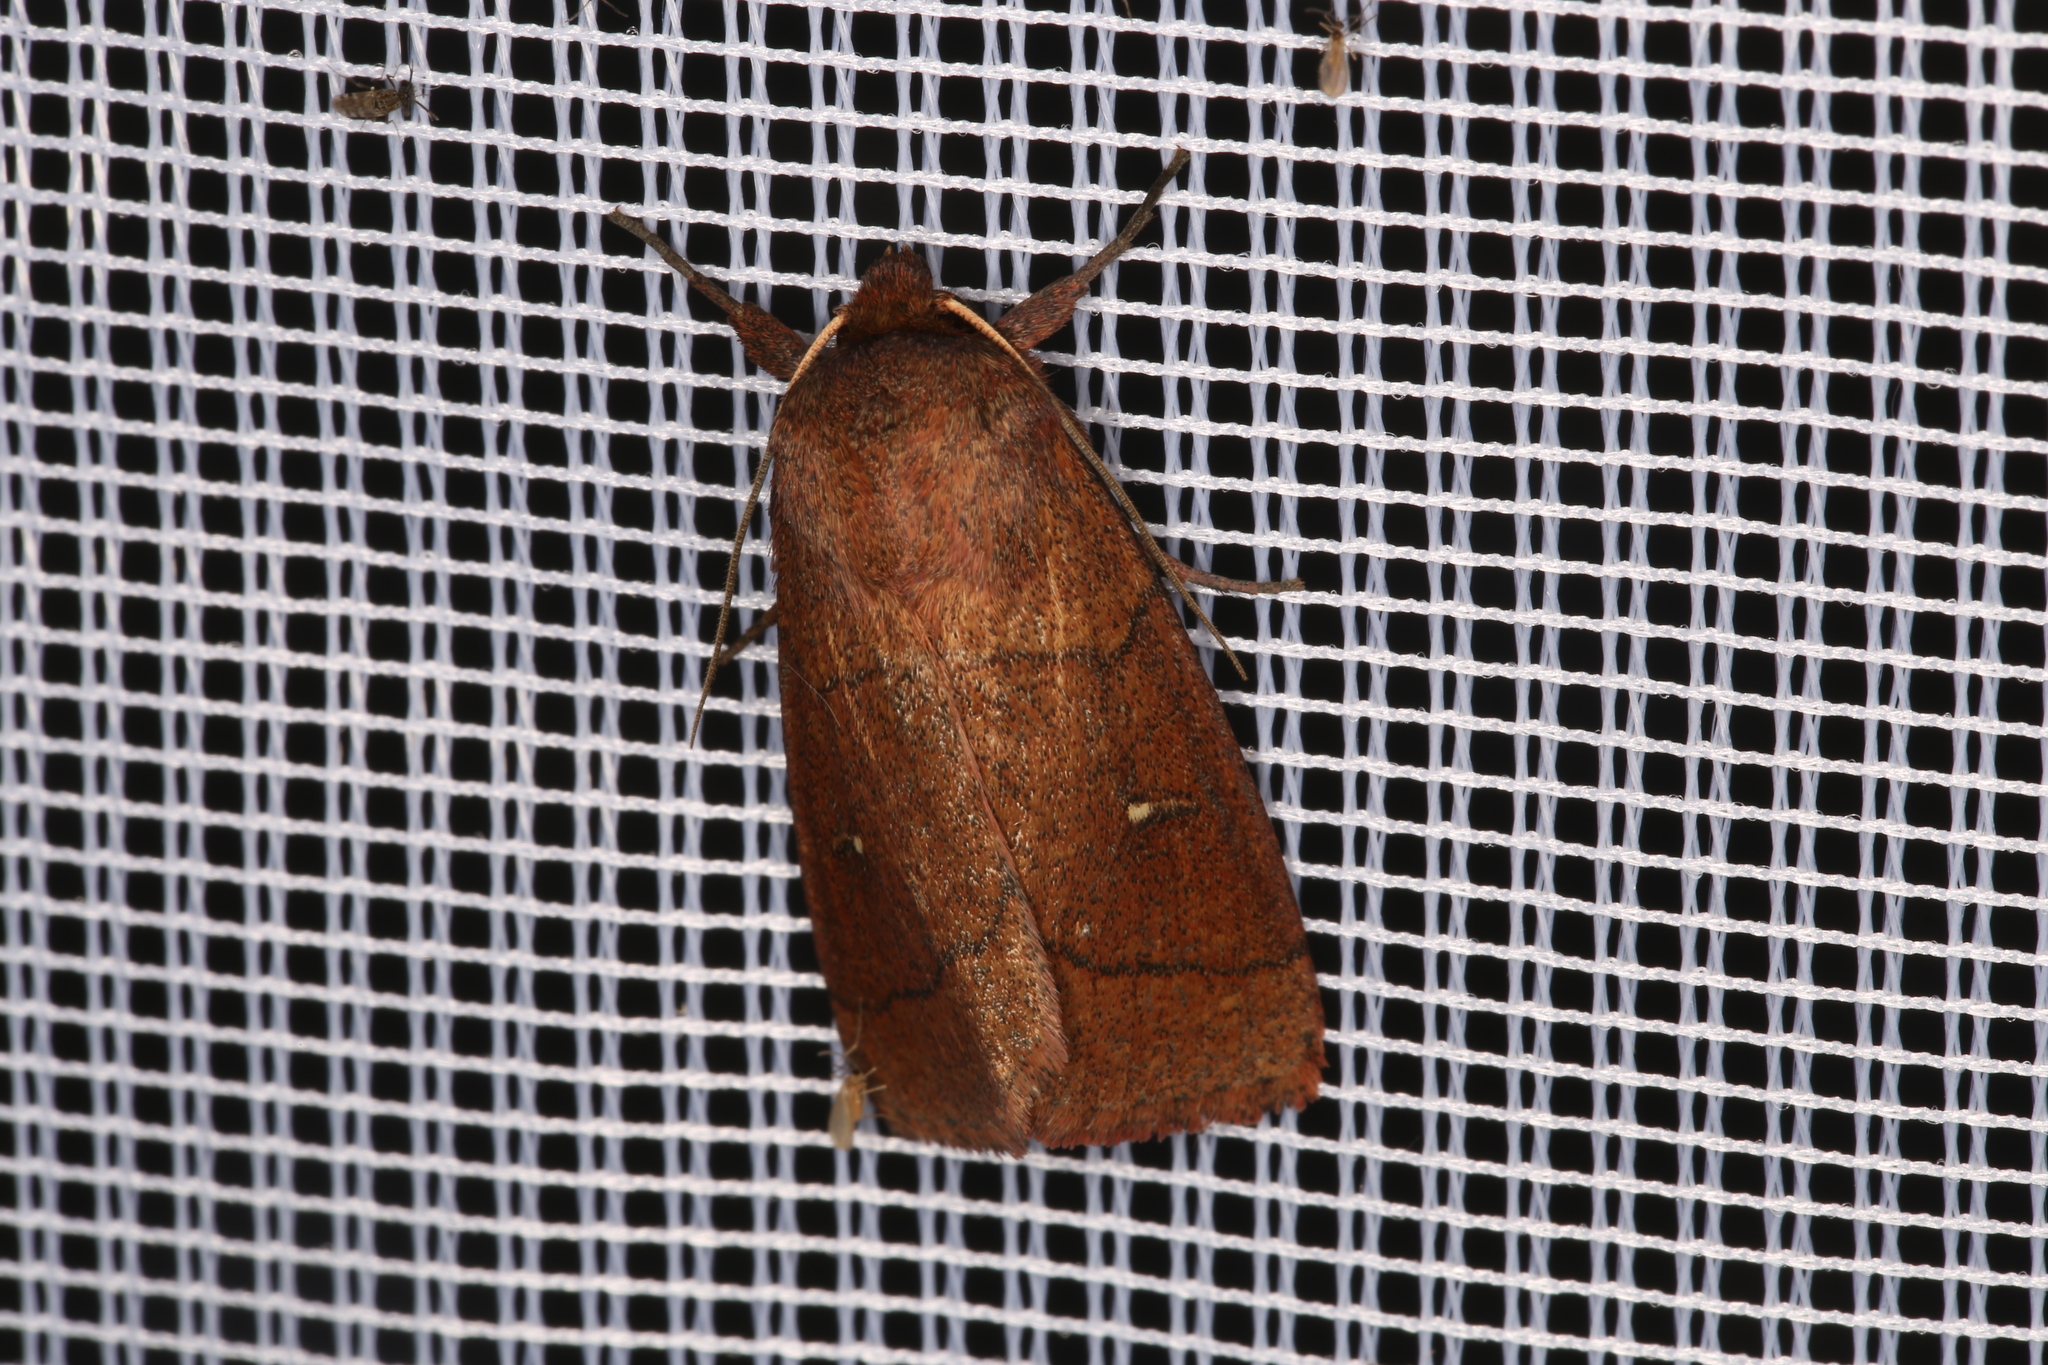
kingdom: Animalia
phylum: Arthropoda
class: Insecta
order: Lepidoptera
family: Noctuidae
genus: Mythimna
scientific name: Mythimna turca
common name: Double line
